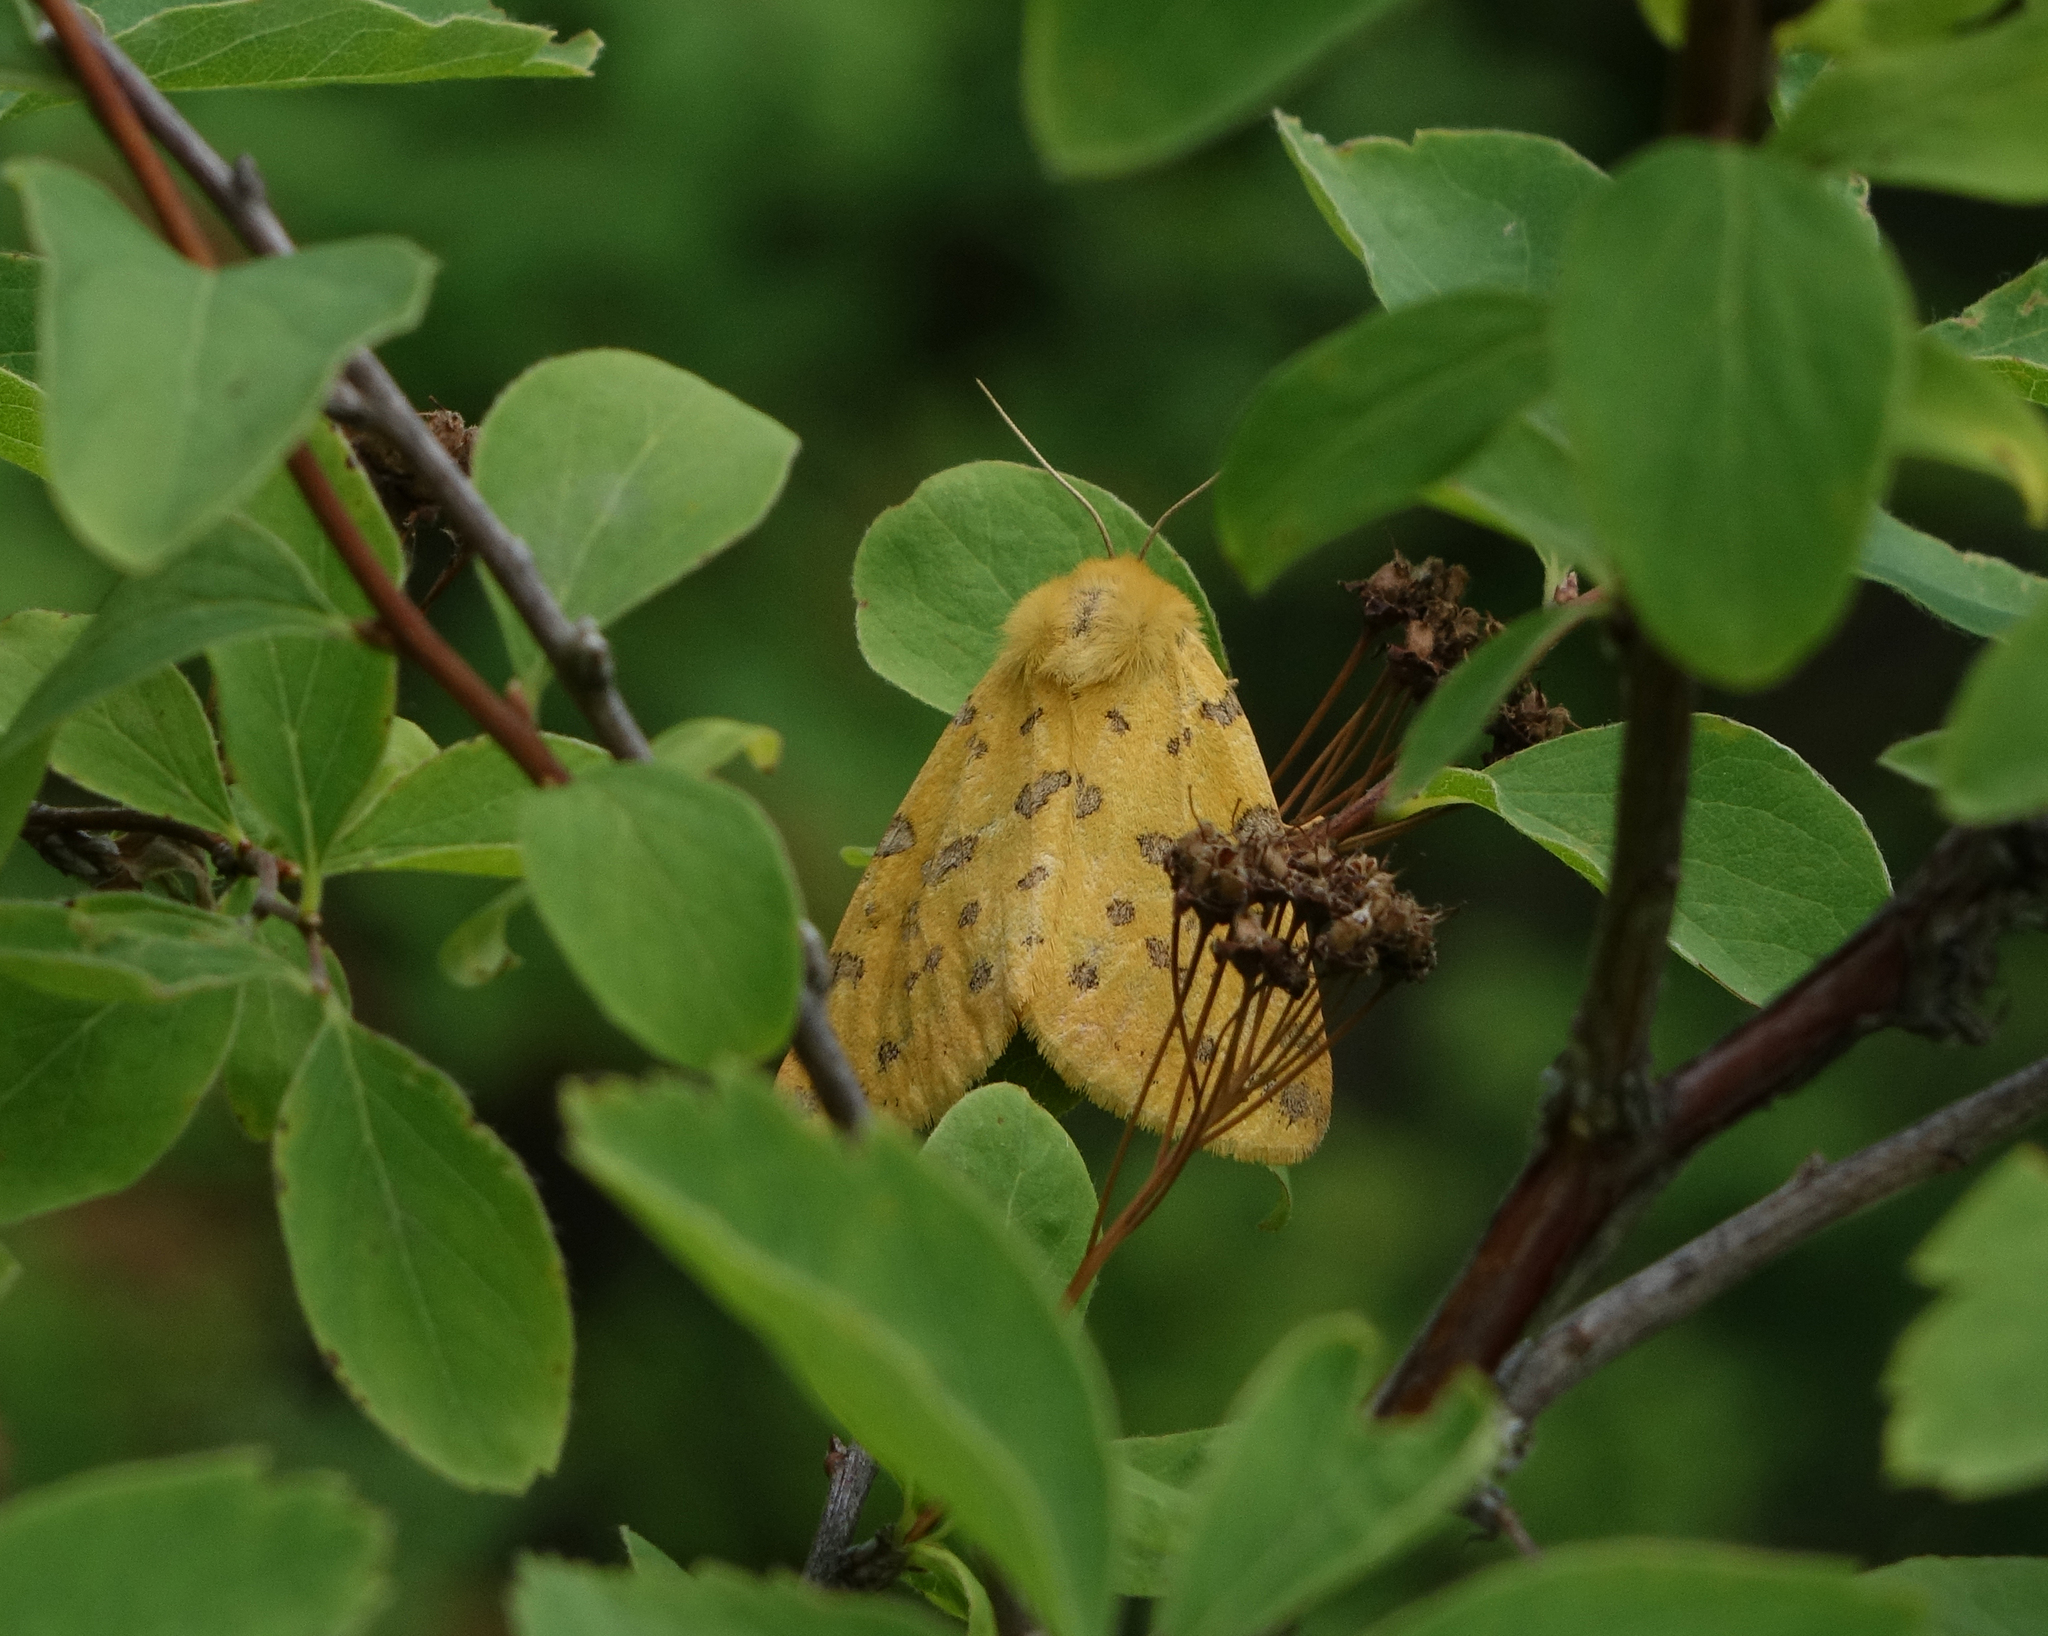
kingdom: Animalia
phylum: Arthropoda
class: Insecta
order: Lepidoptera
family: Erebidae
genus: Rhyparia
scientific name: Rhyparia purpurata
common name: Purple tiger
